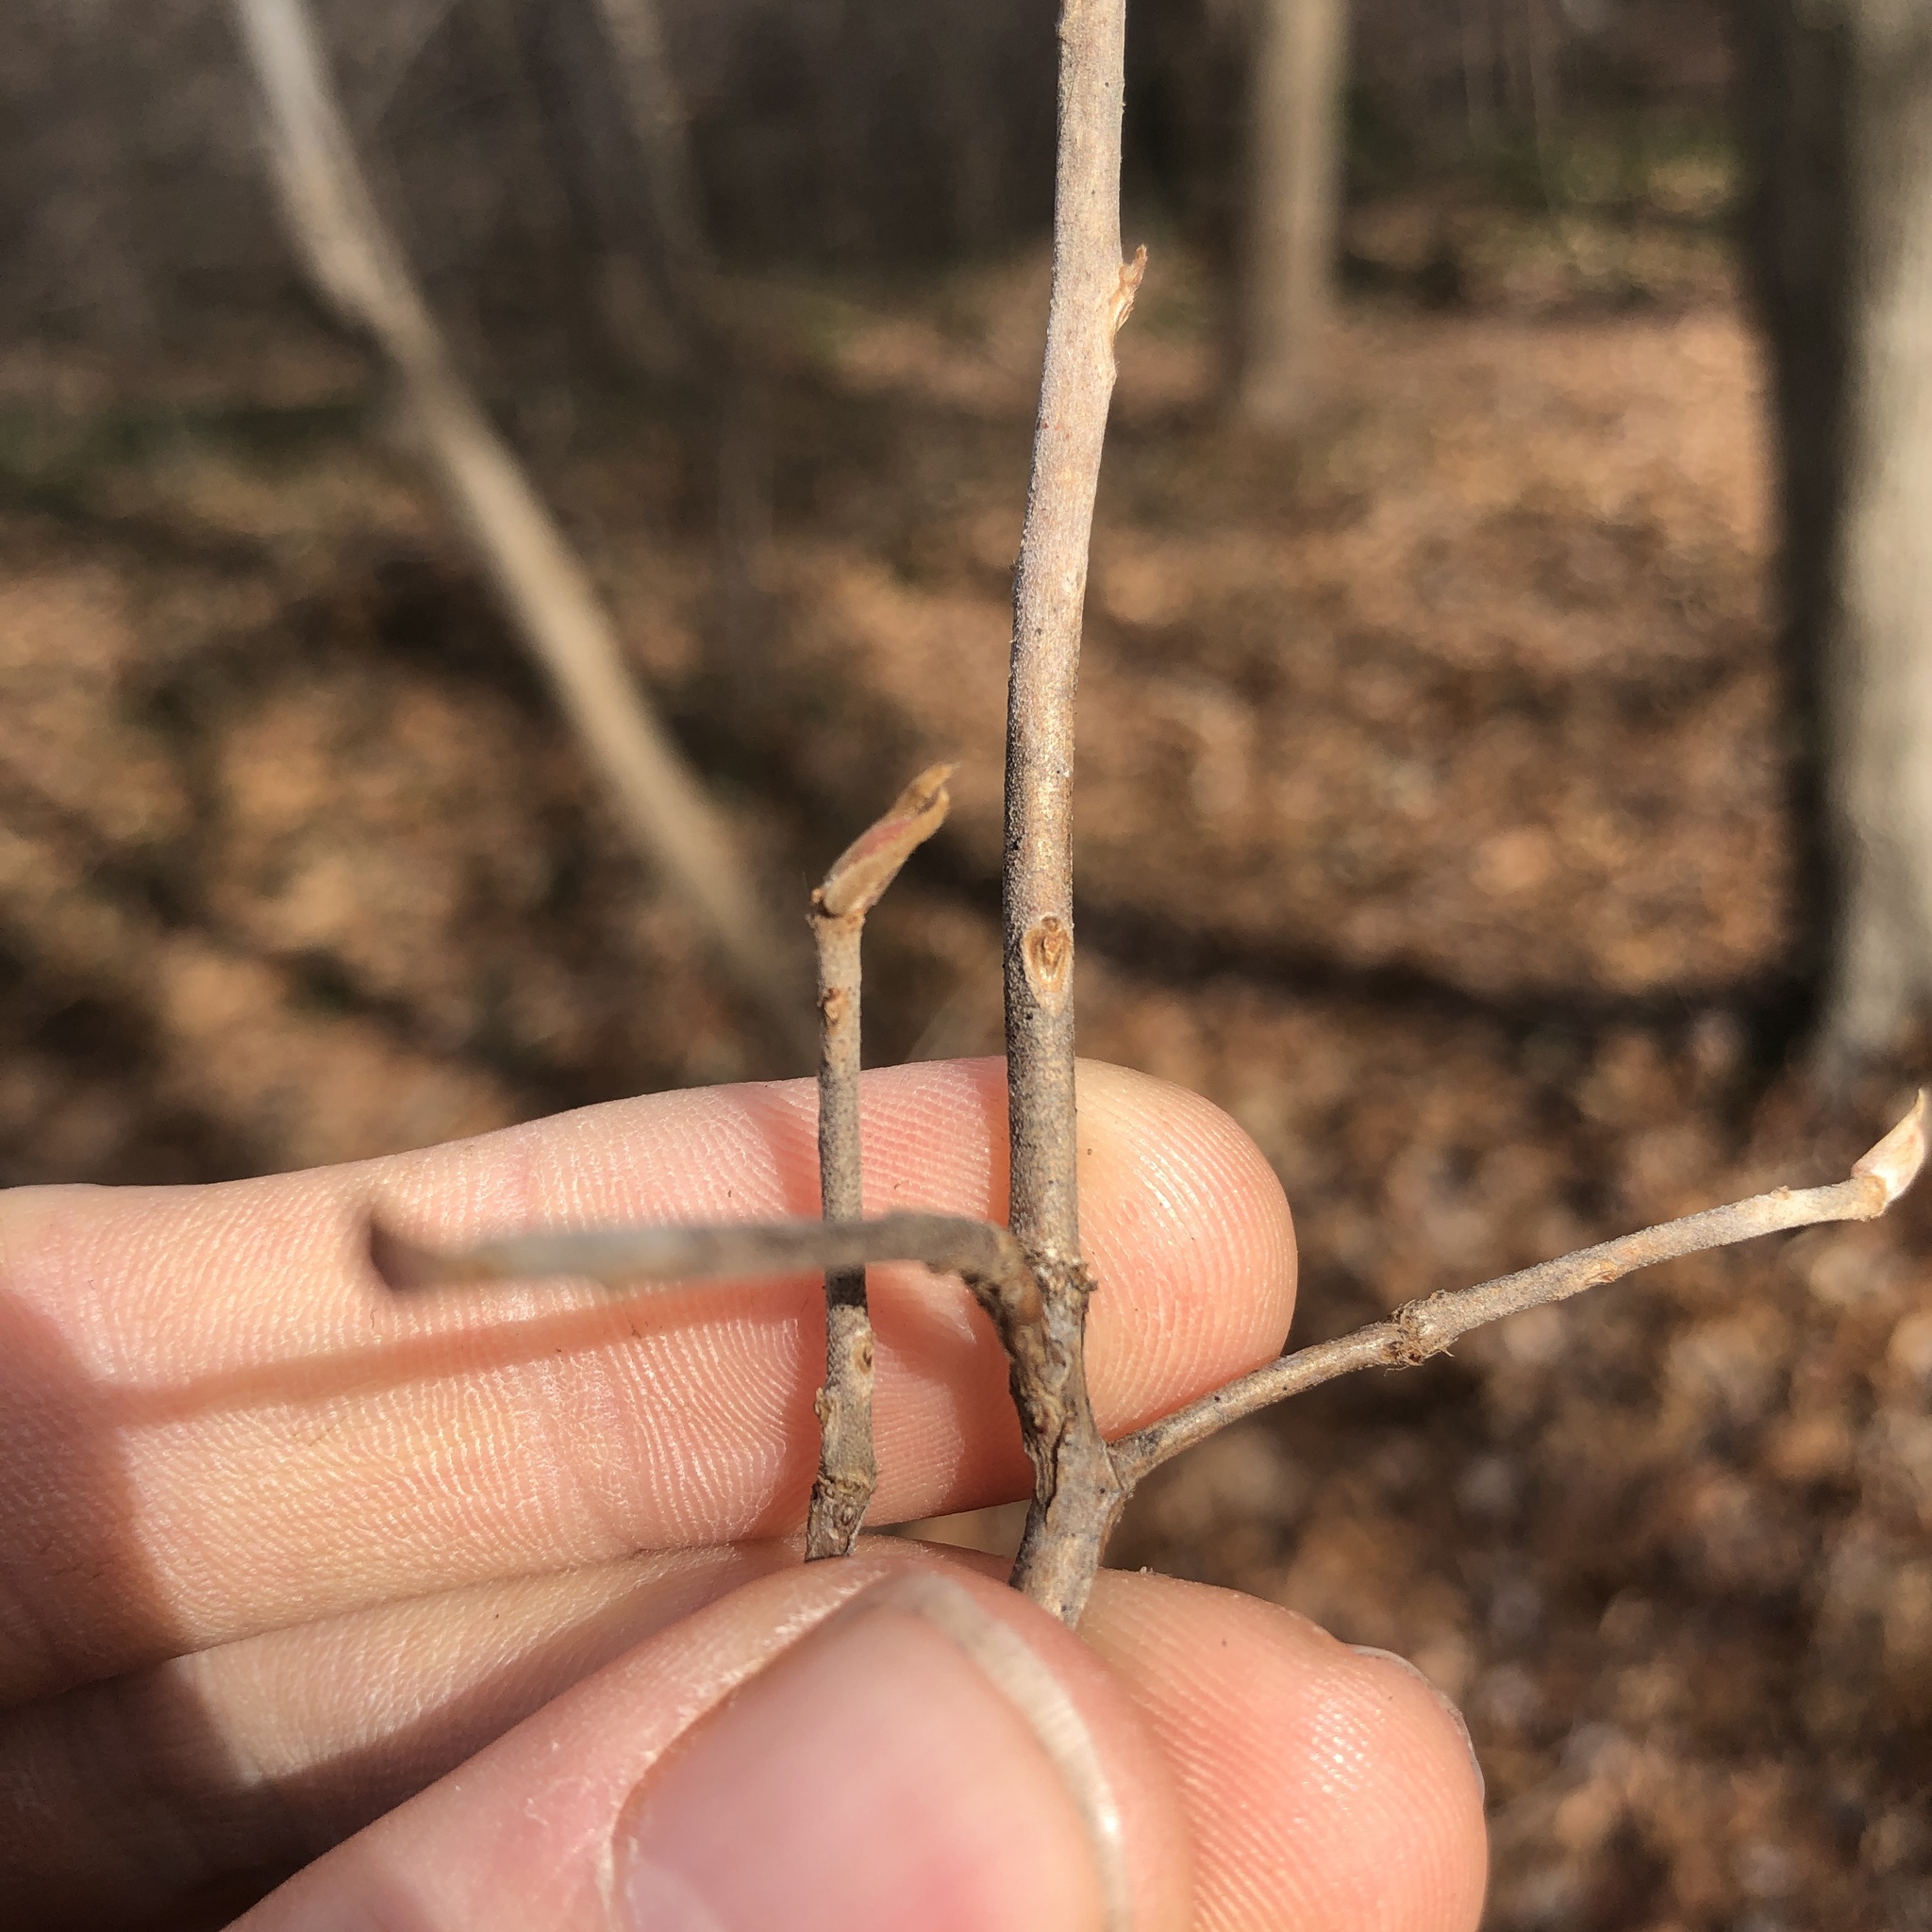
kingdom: Plantae
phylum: Tracheophyta
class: Magnoliopsida
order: Ericales
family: Clethraceae
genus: Clethra
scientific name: Clethra alnifolia
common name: Sweet pepperbush
